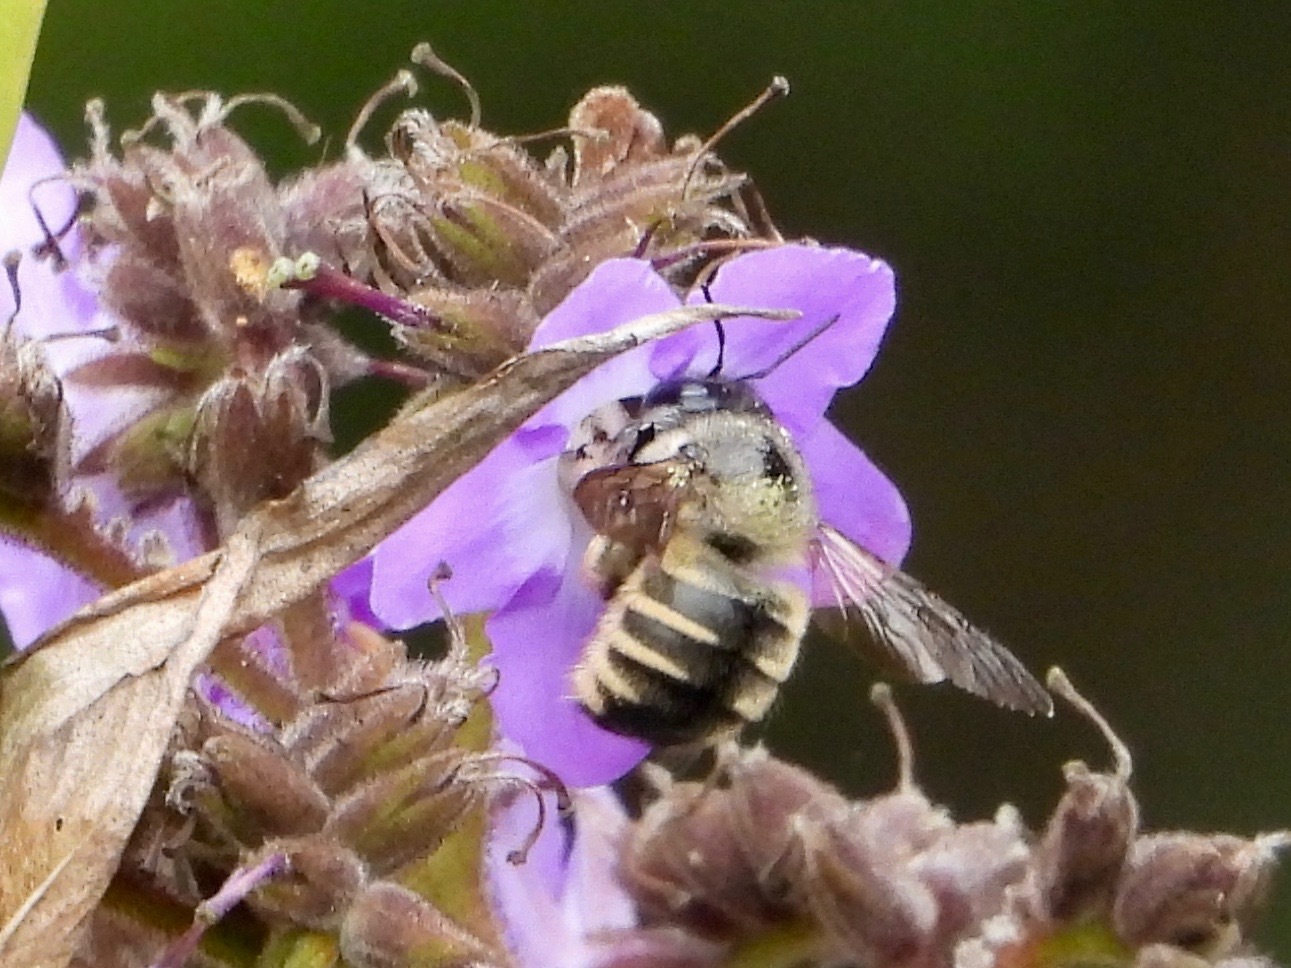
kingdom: Animalia
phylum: Arthropoda
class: Insecta
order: Hymenoptera
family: Apidae
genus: Xylocopa
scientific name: Xylocopa tabaniformis
